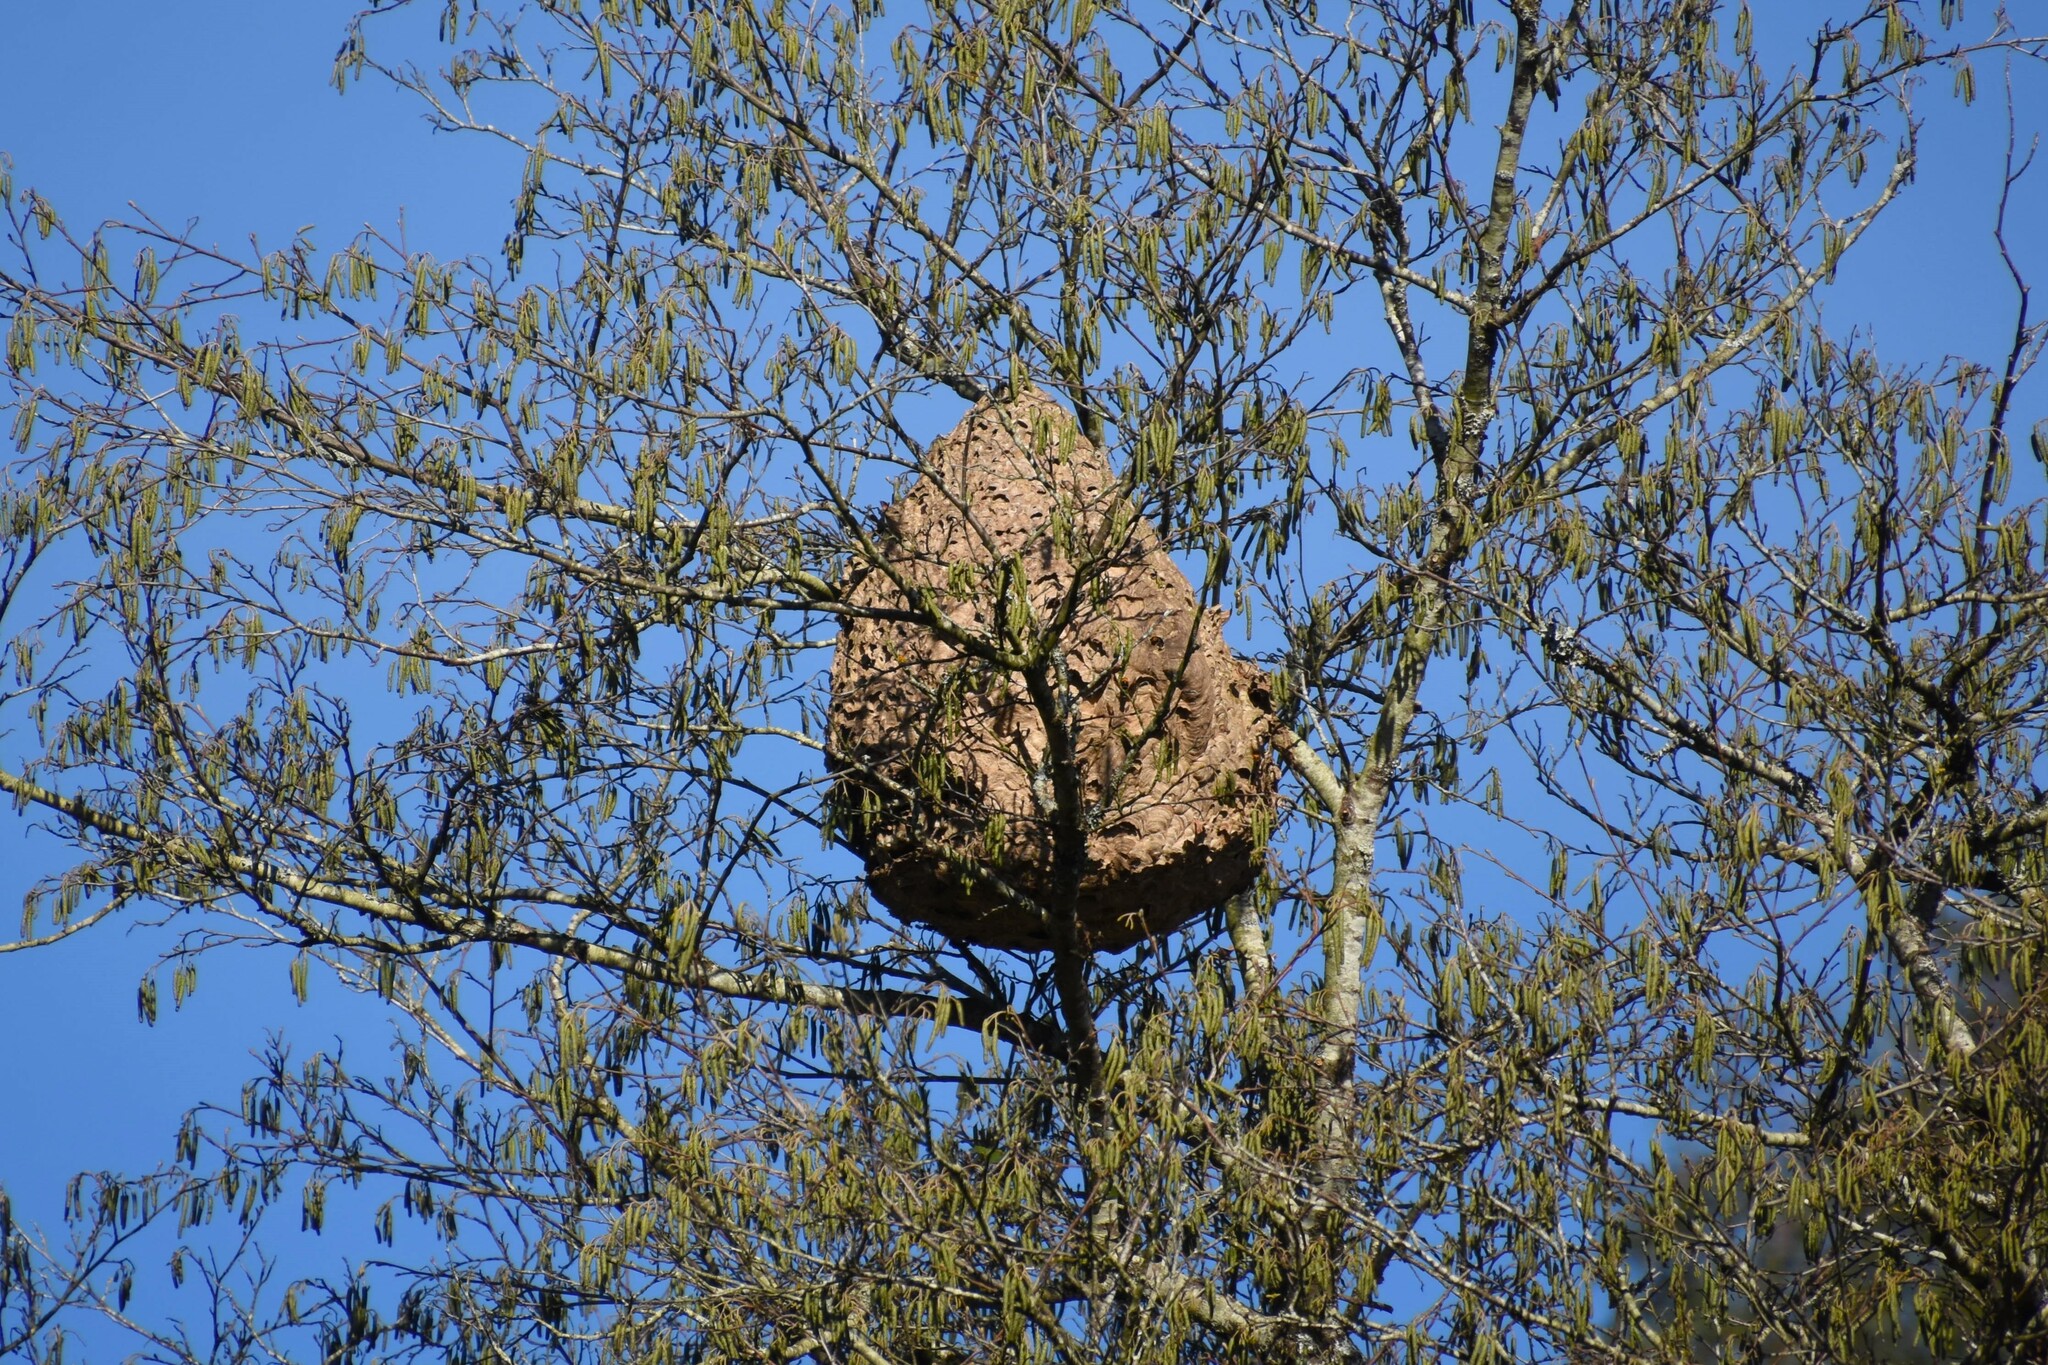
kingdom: Animalia
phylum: Arthropoda
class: Insecta
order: Hymenoptera
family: Vespidae
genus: Vespa
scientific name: Vespa velutina
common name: Asian hornet
